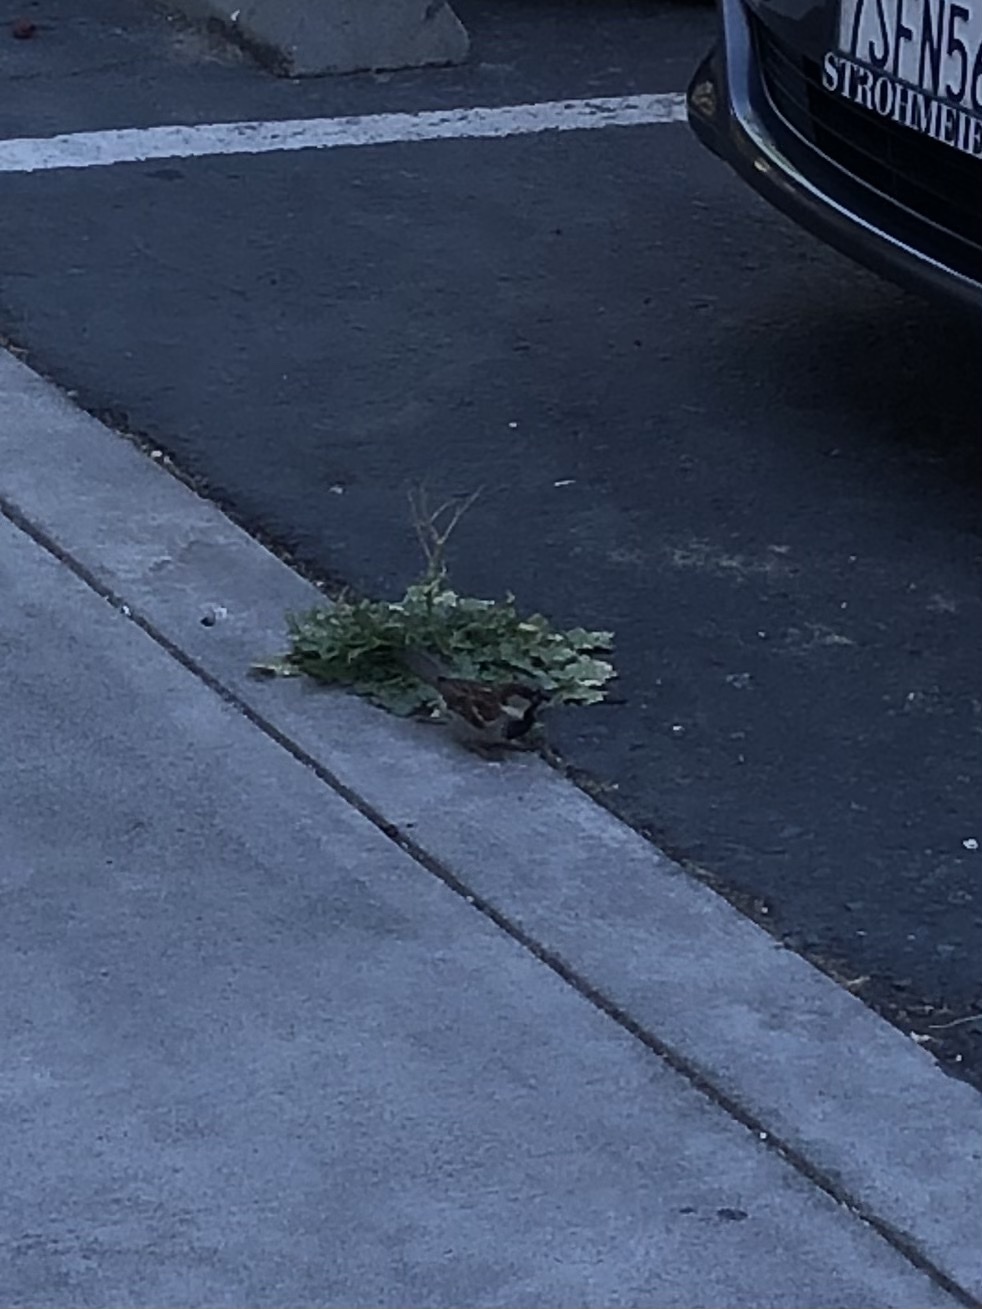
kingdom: Animalia
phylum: Chordata
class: Aves
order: Passeriformes
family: Passeridae
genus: Passer
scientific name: Passer domesticus
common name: House sparrow
